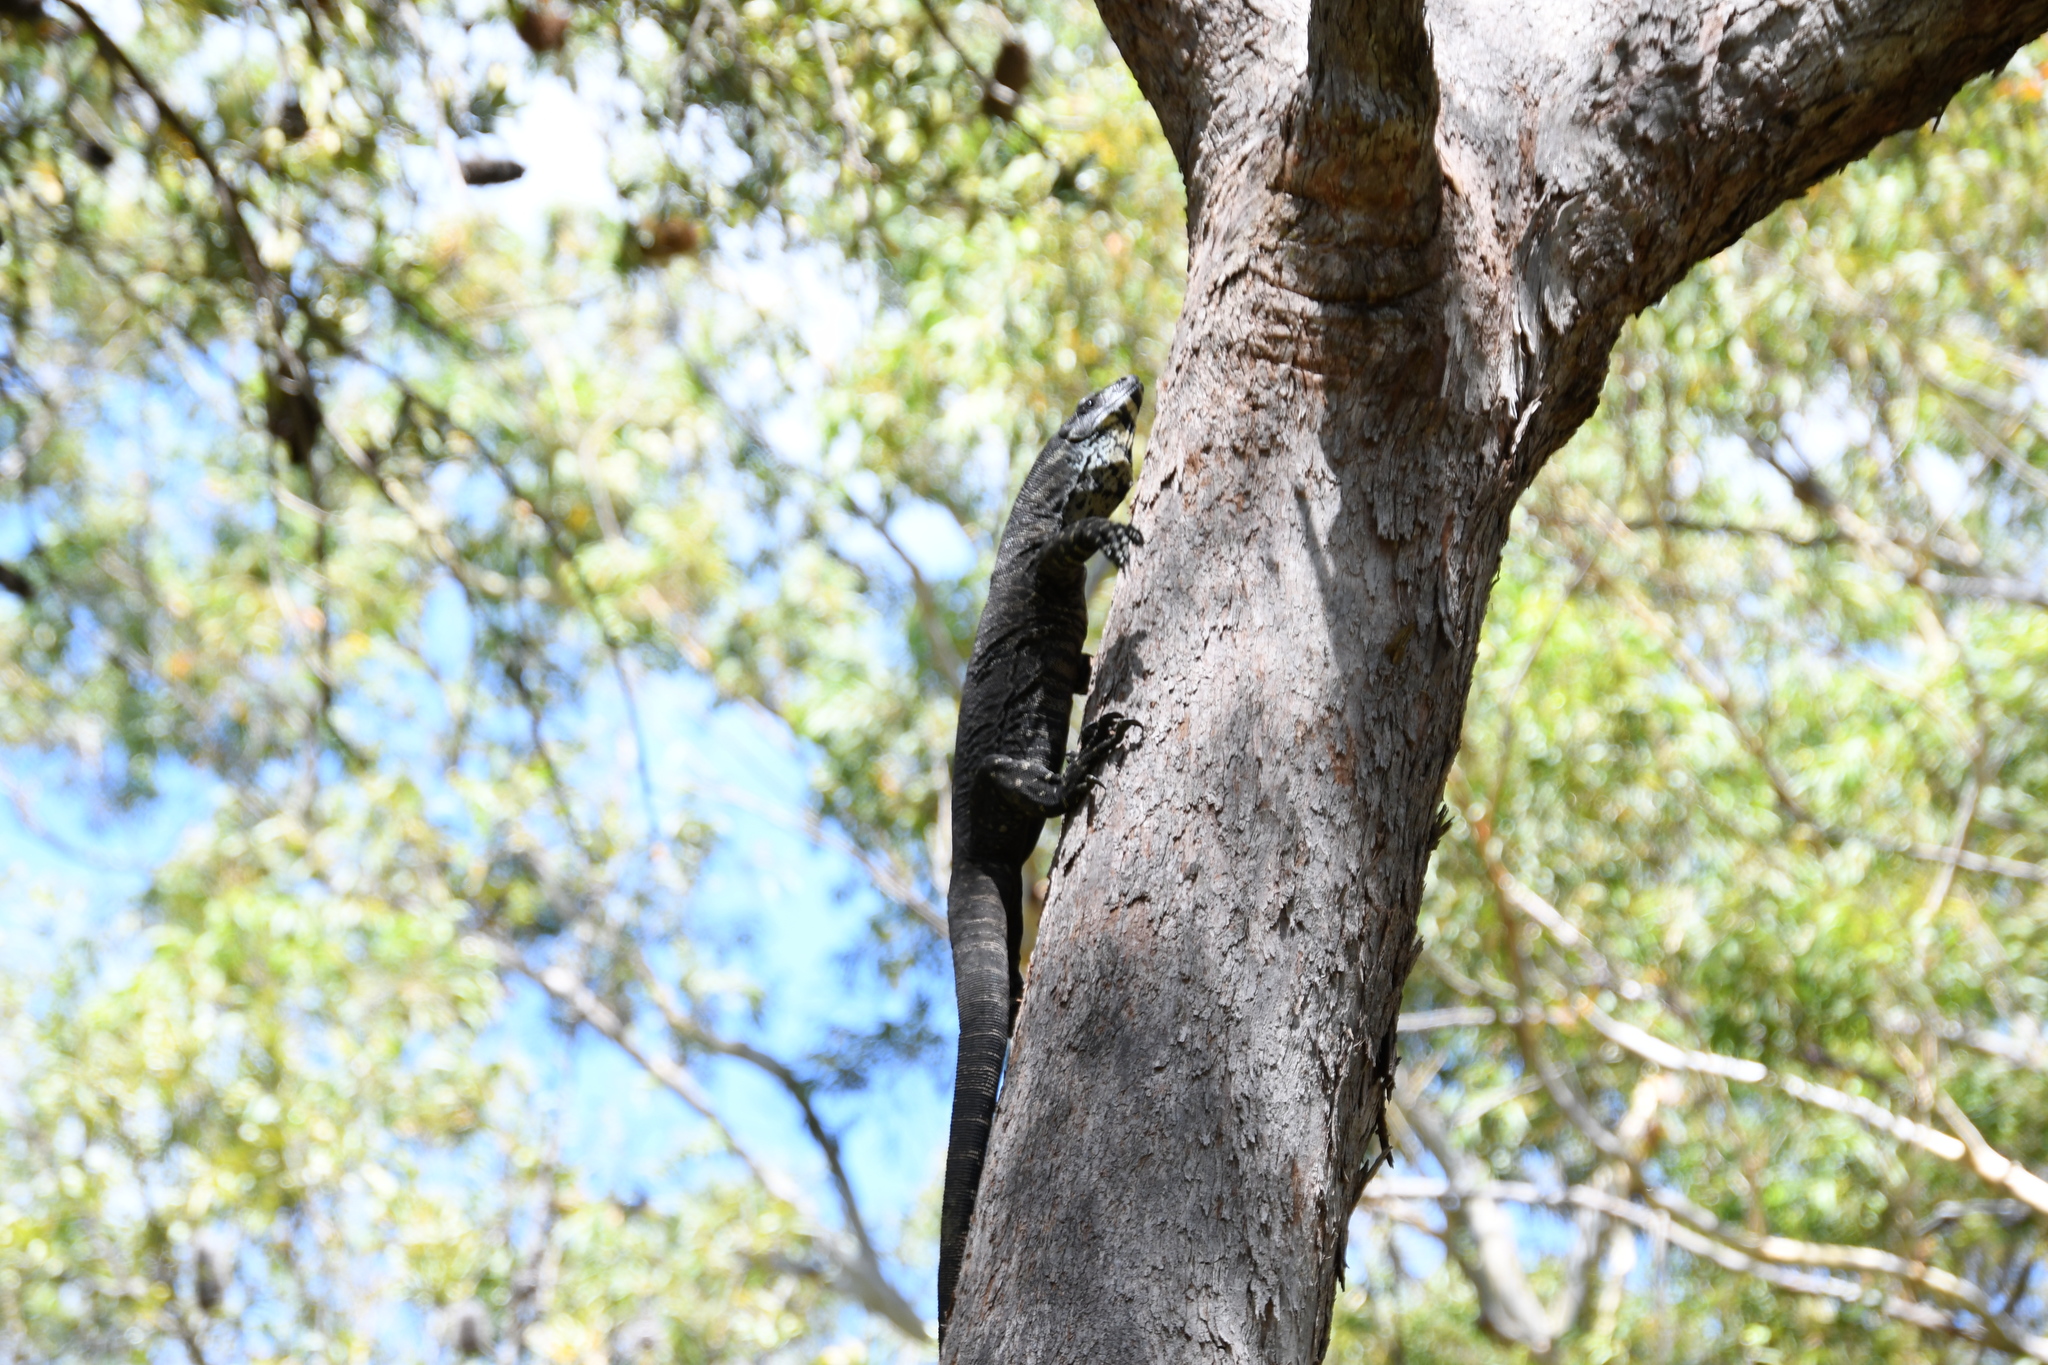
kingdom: Animalia
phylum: Chordata
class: Squamata
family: Varanidae
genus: Varanus
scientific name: Varanus varius
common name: Lace monitor
